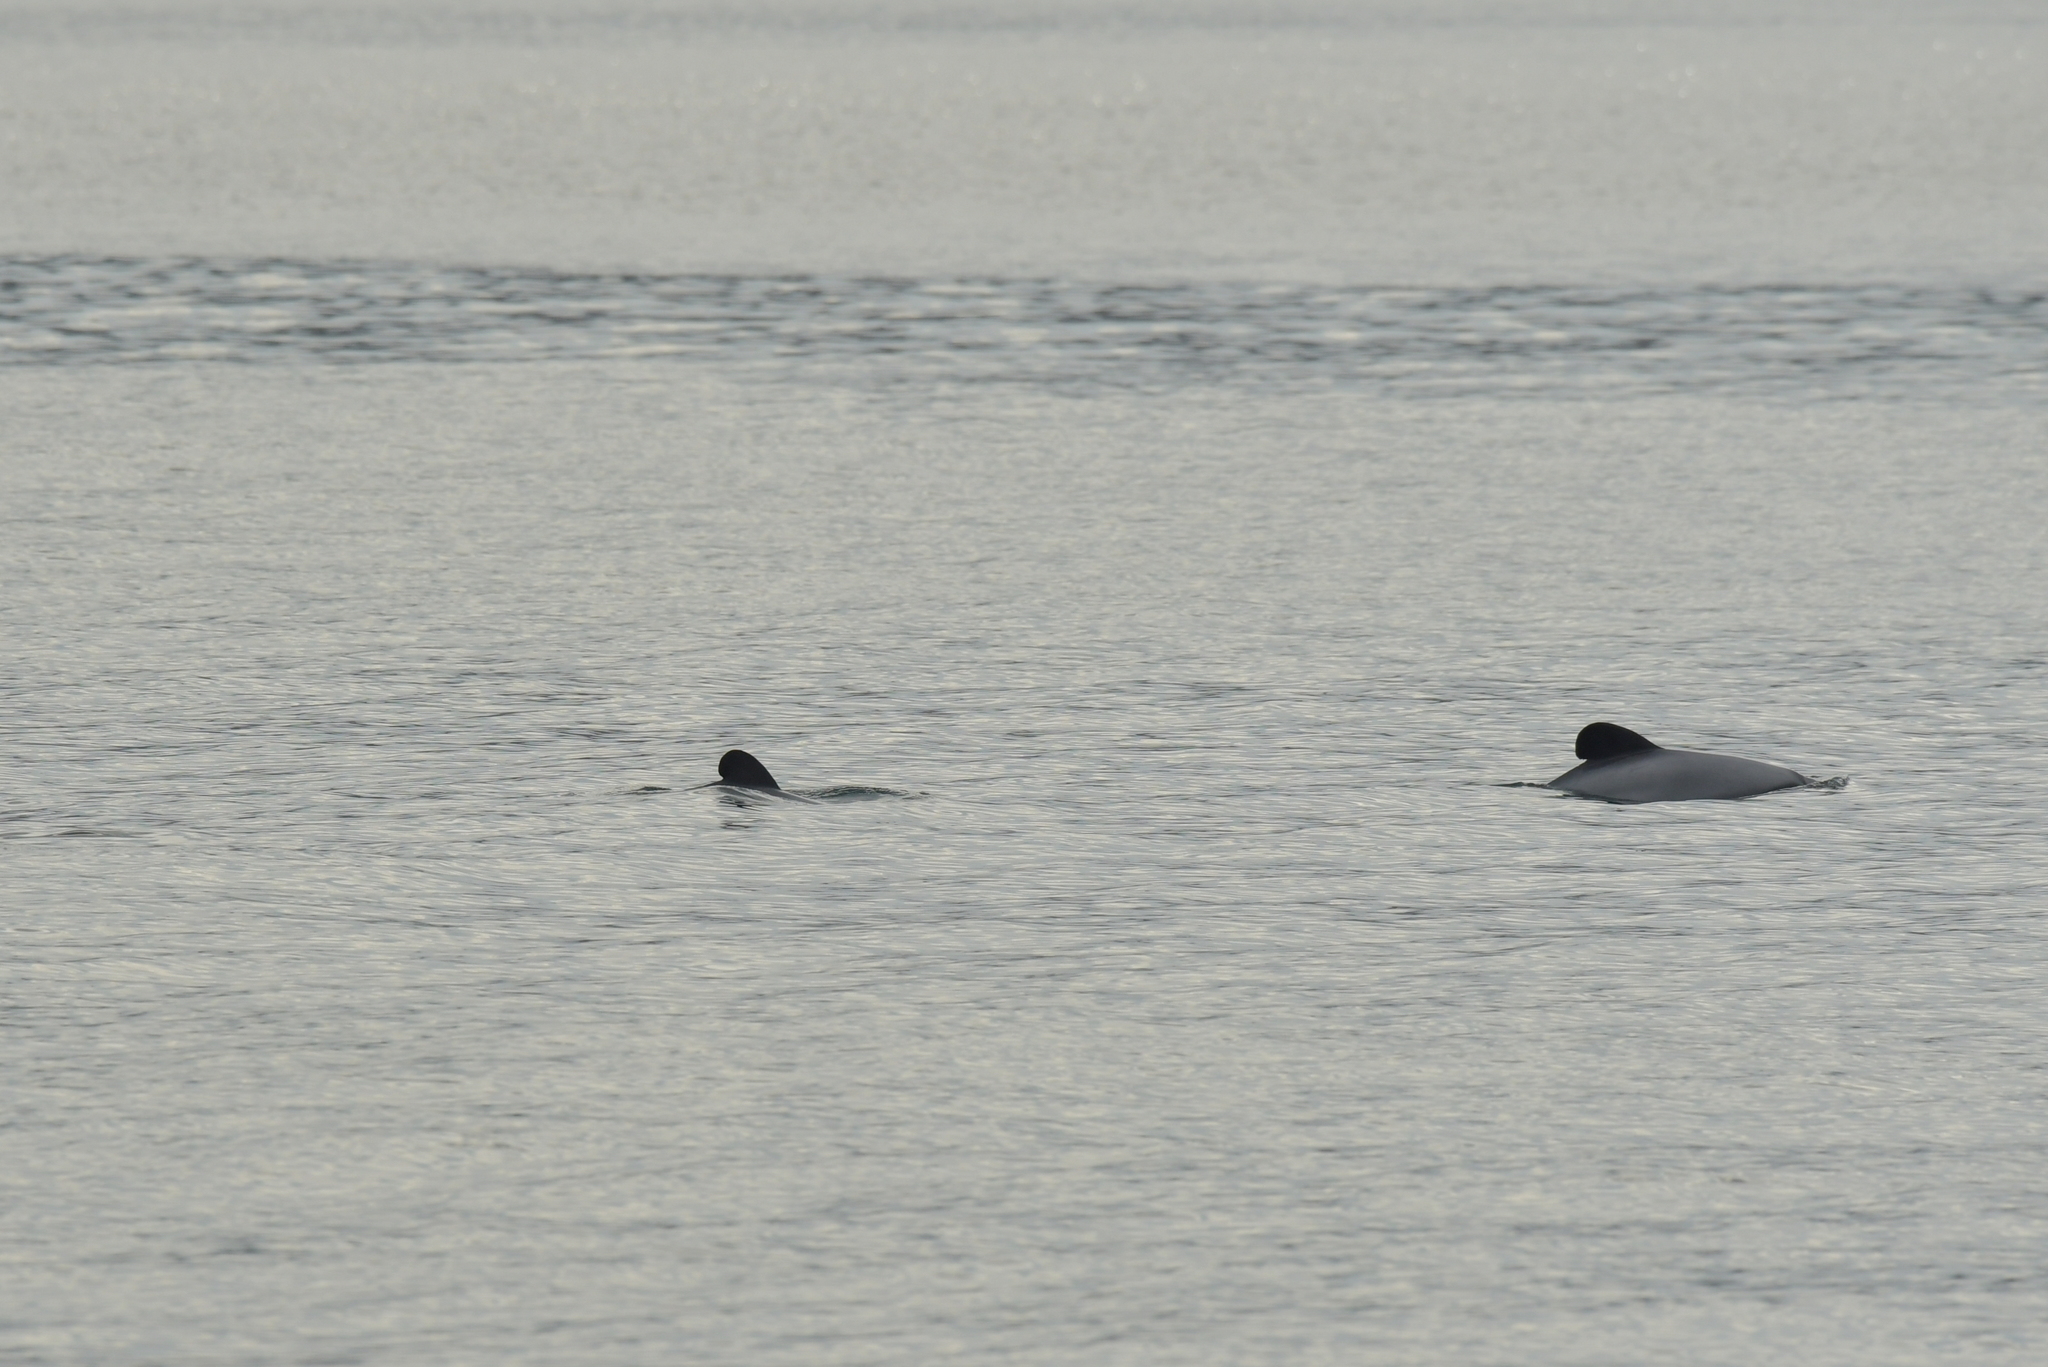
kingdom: Animalia
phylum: Chordata
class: Mammalia
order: Cetacea
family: Delphinidae
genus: Cephalorhynchus
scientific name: Cephalorhynchus hectori
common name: Hector's dolphin
